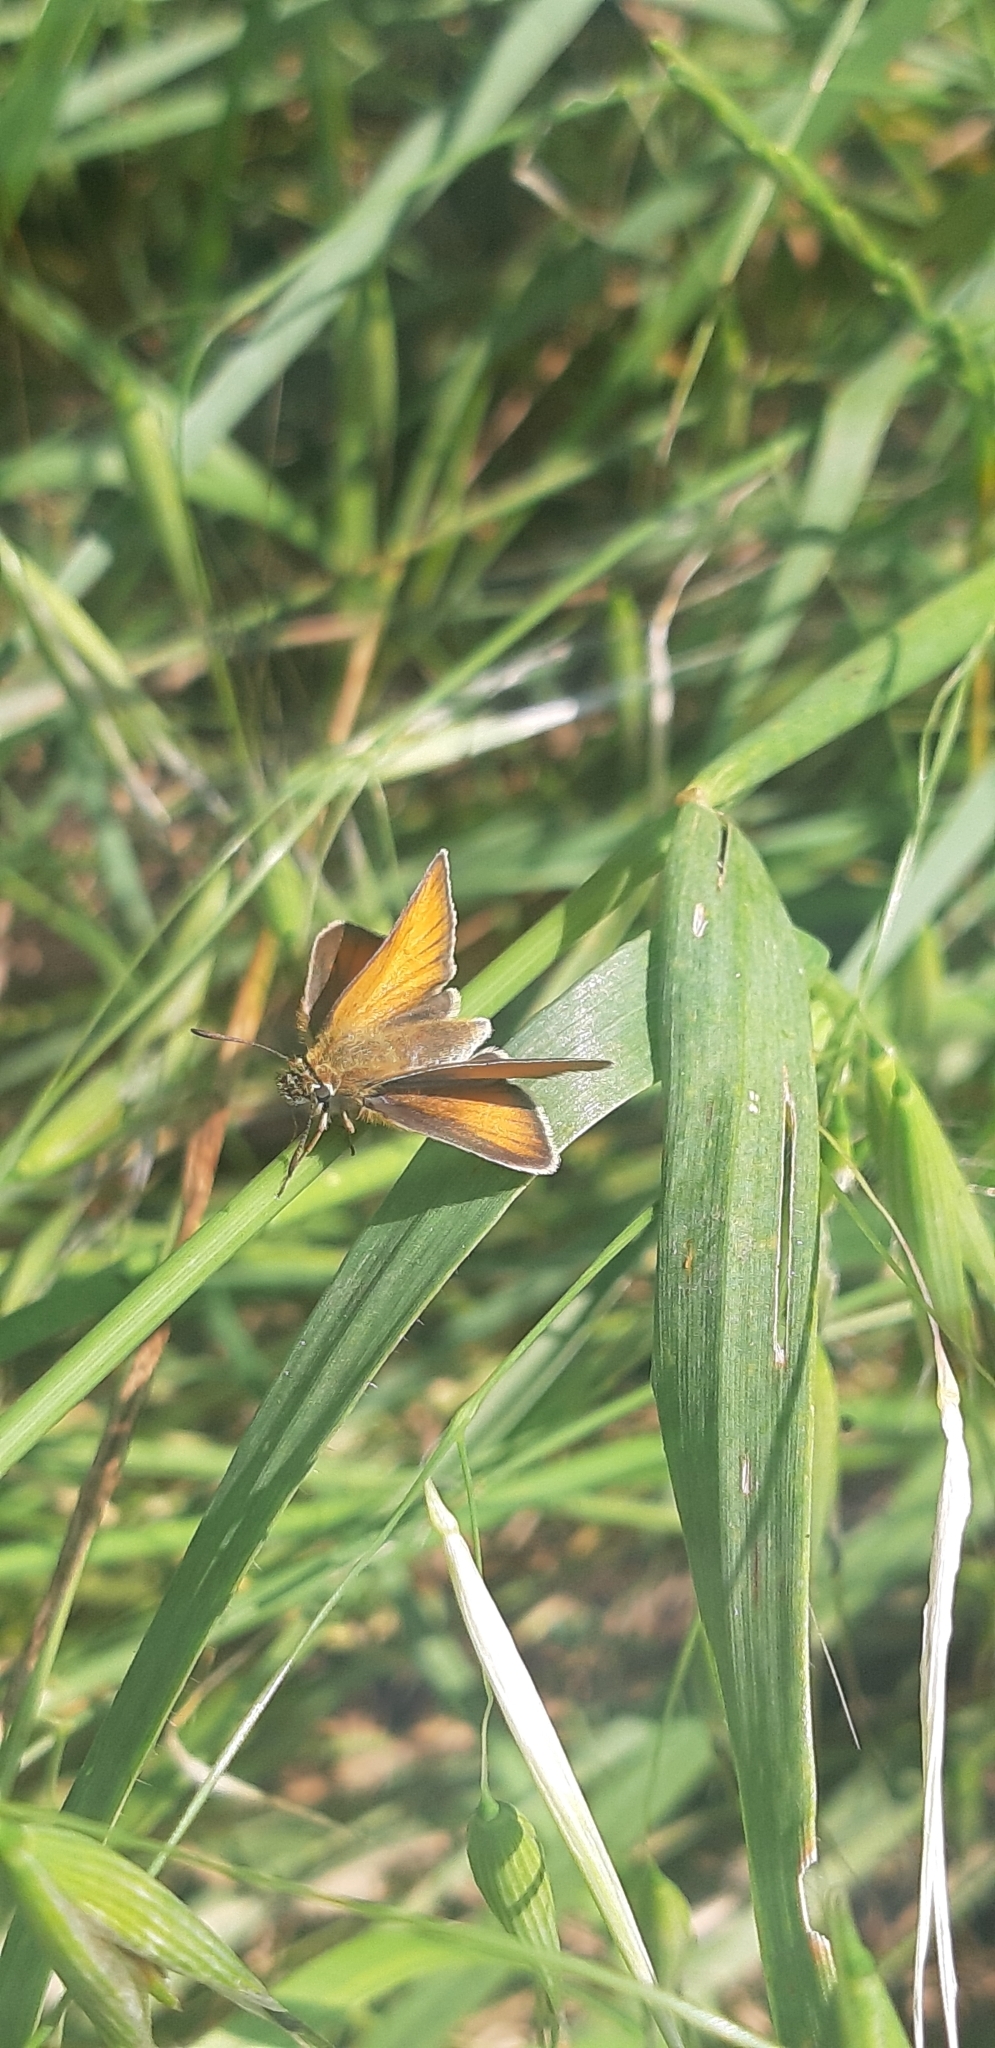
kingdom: Animalia
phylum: Arthropoda
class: Insecta
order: Lepidoptera
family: Hesperiidae
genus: Thymelicus
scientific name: Thymelicus lineola
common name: Essex skipper
